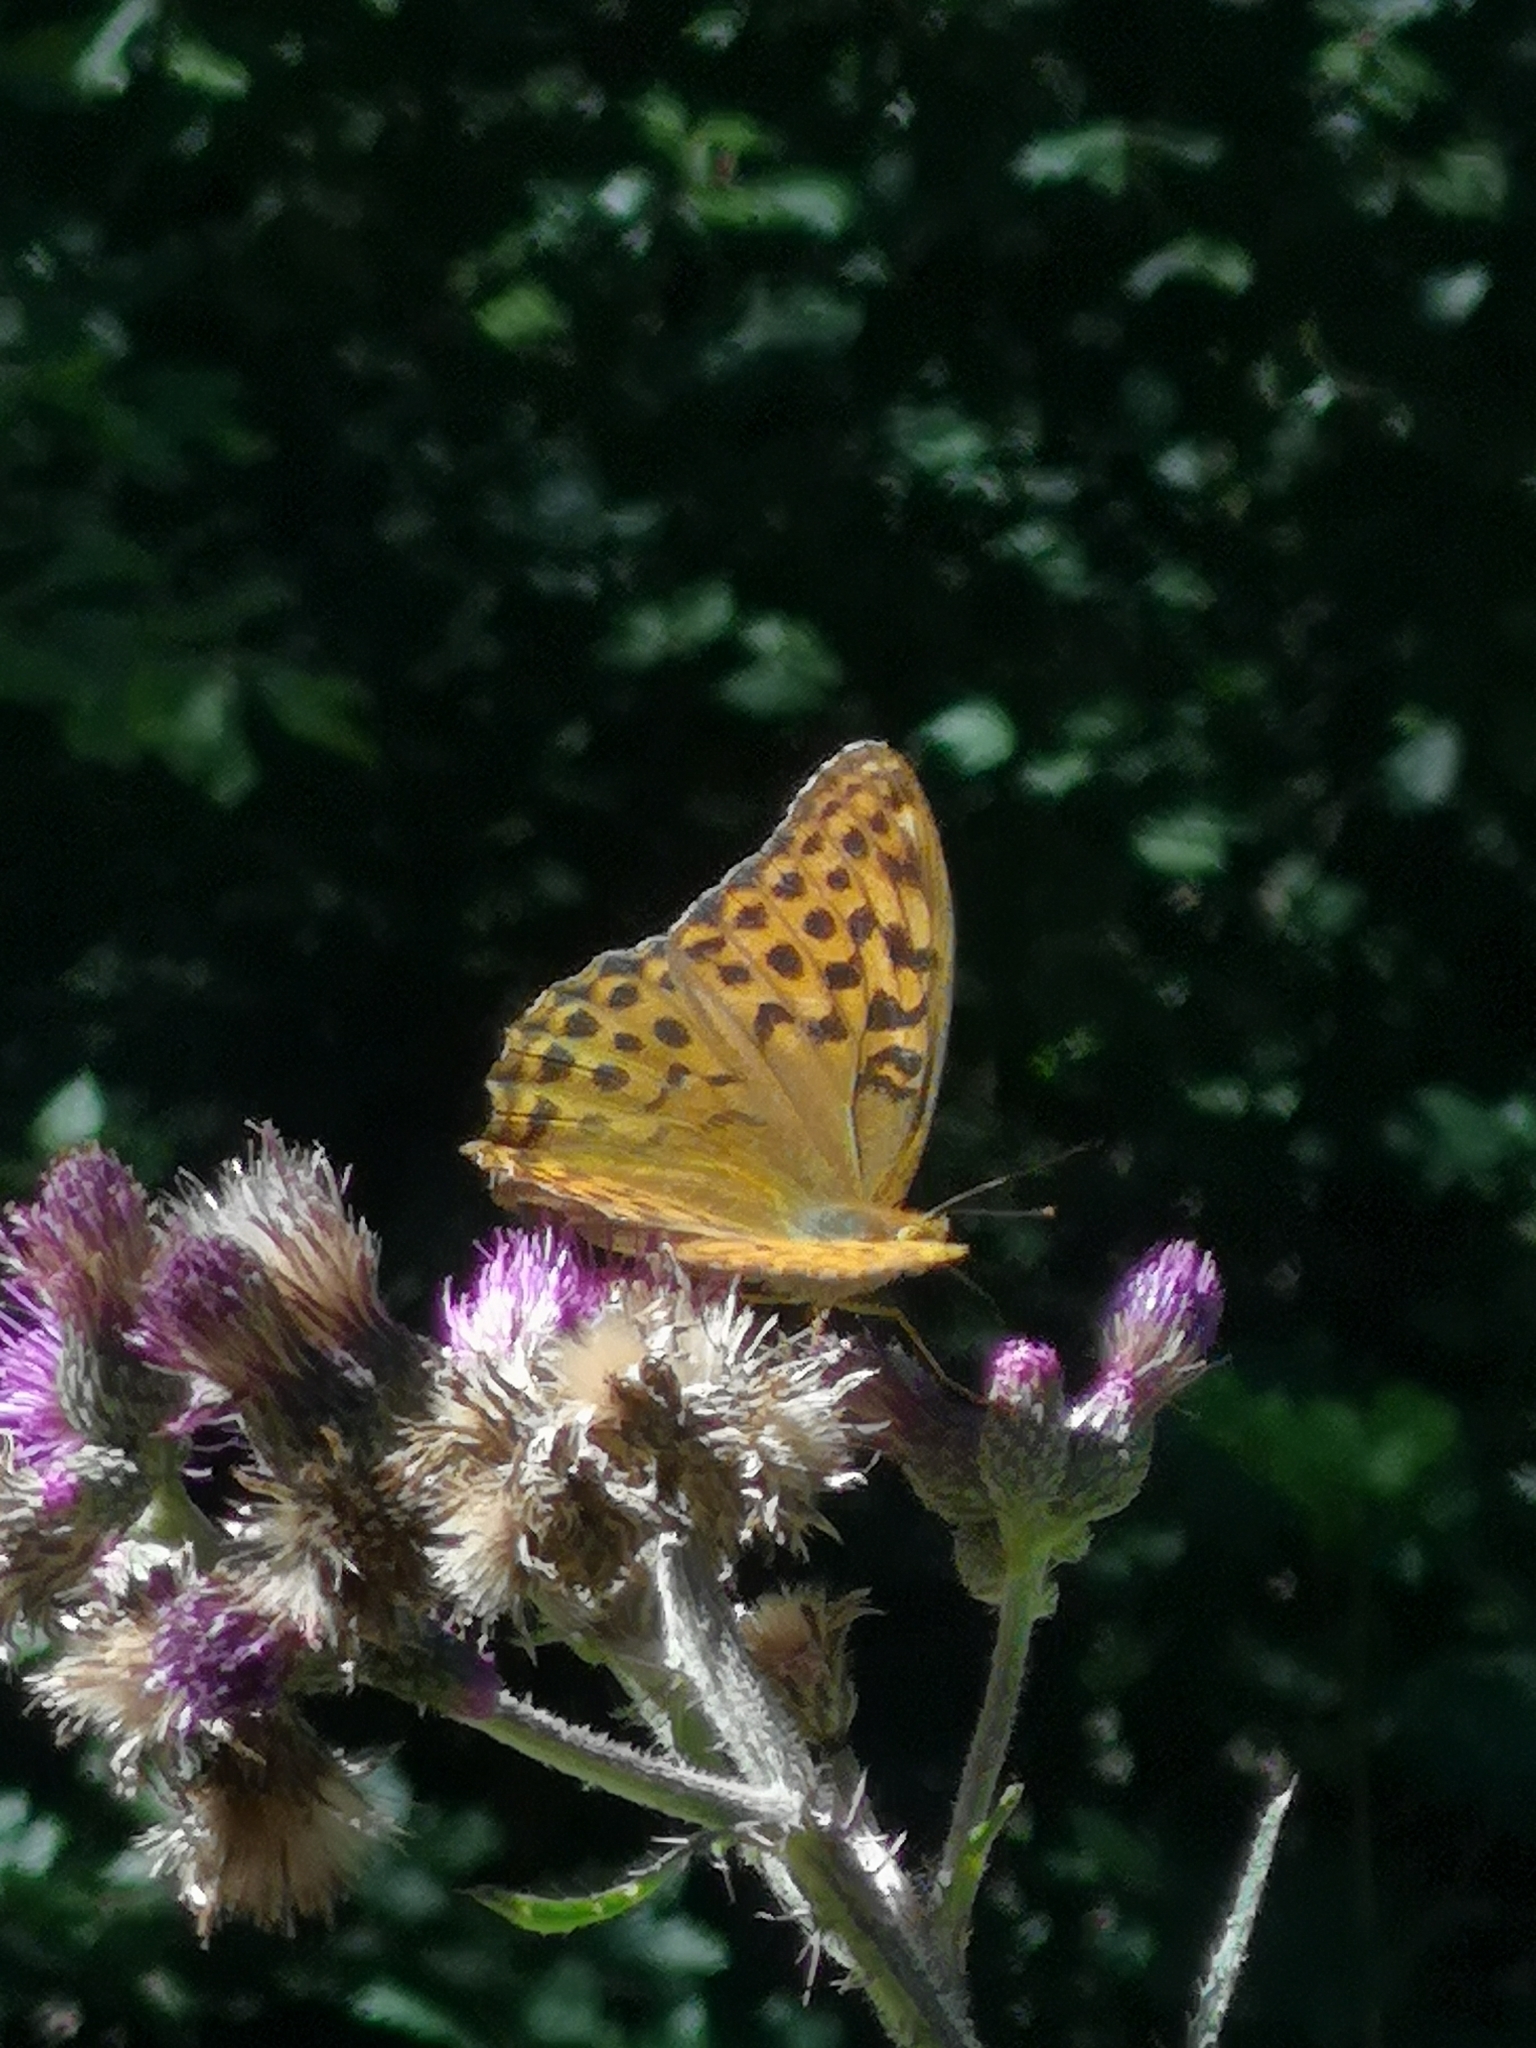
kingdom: Animalia
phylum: Arthropoda
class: Insecta
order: Lepidoptera
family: Nymphalidae
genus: Argynnis
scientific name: Argynnis paphia
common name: Silver-washed fritillary
